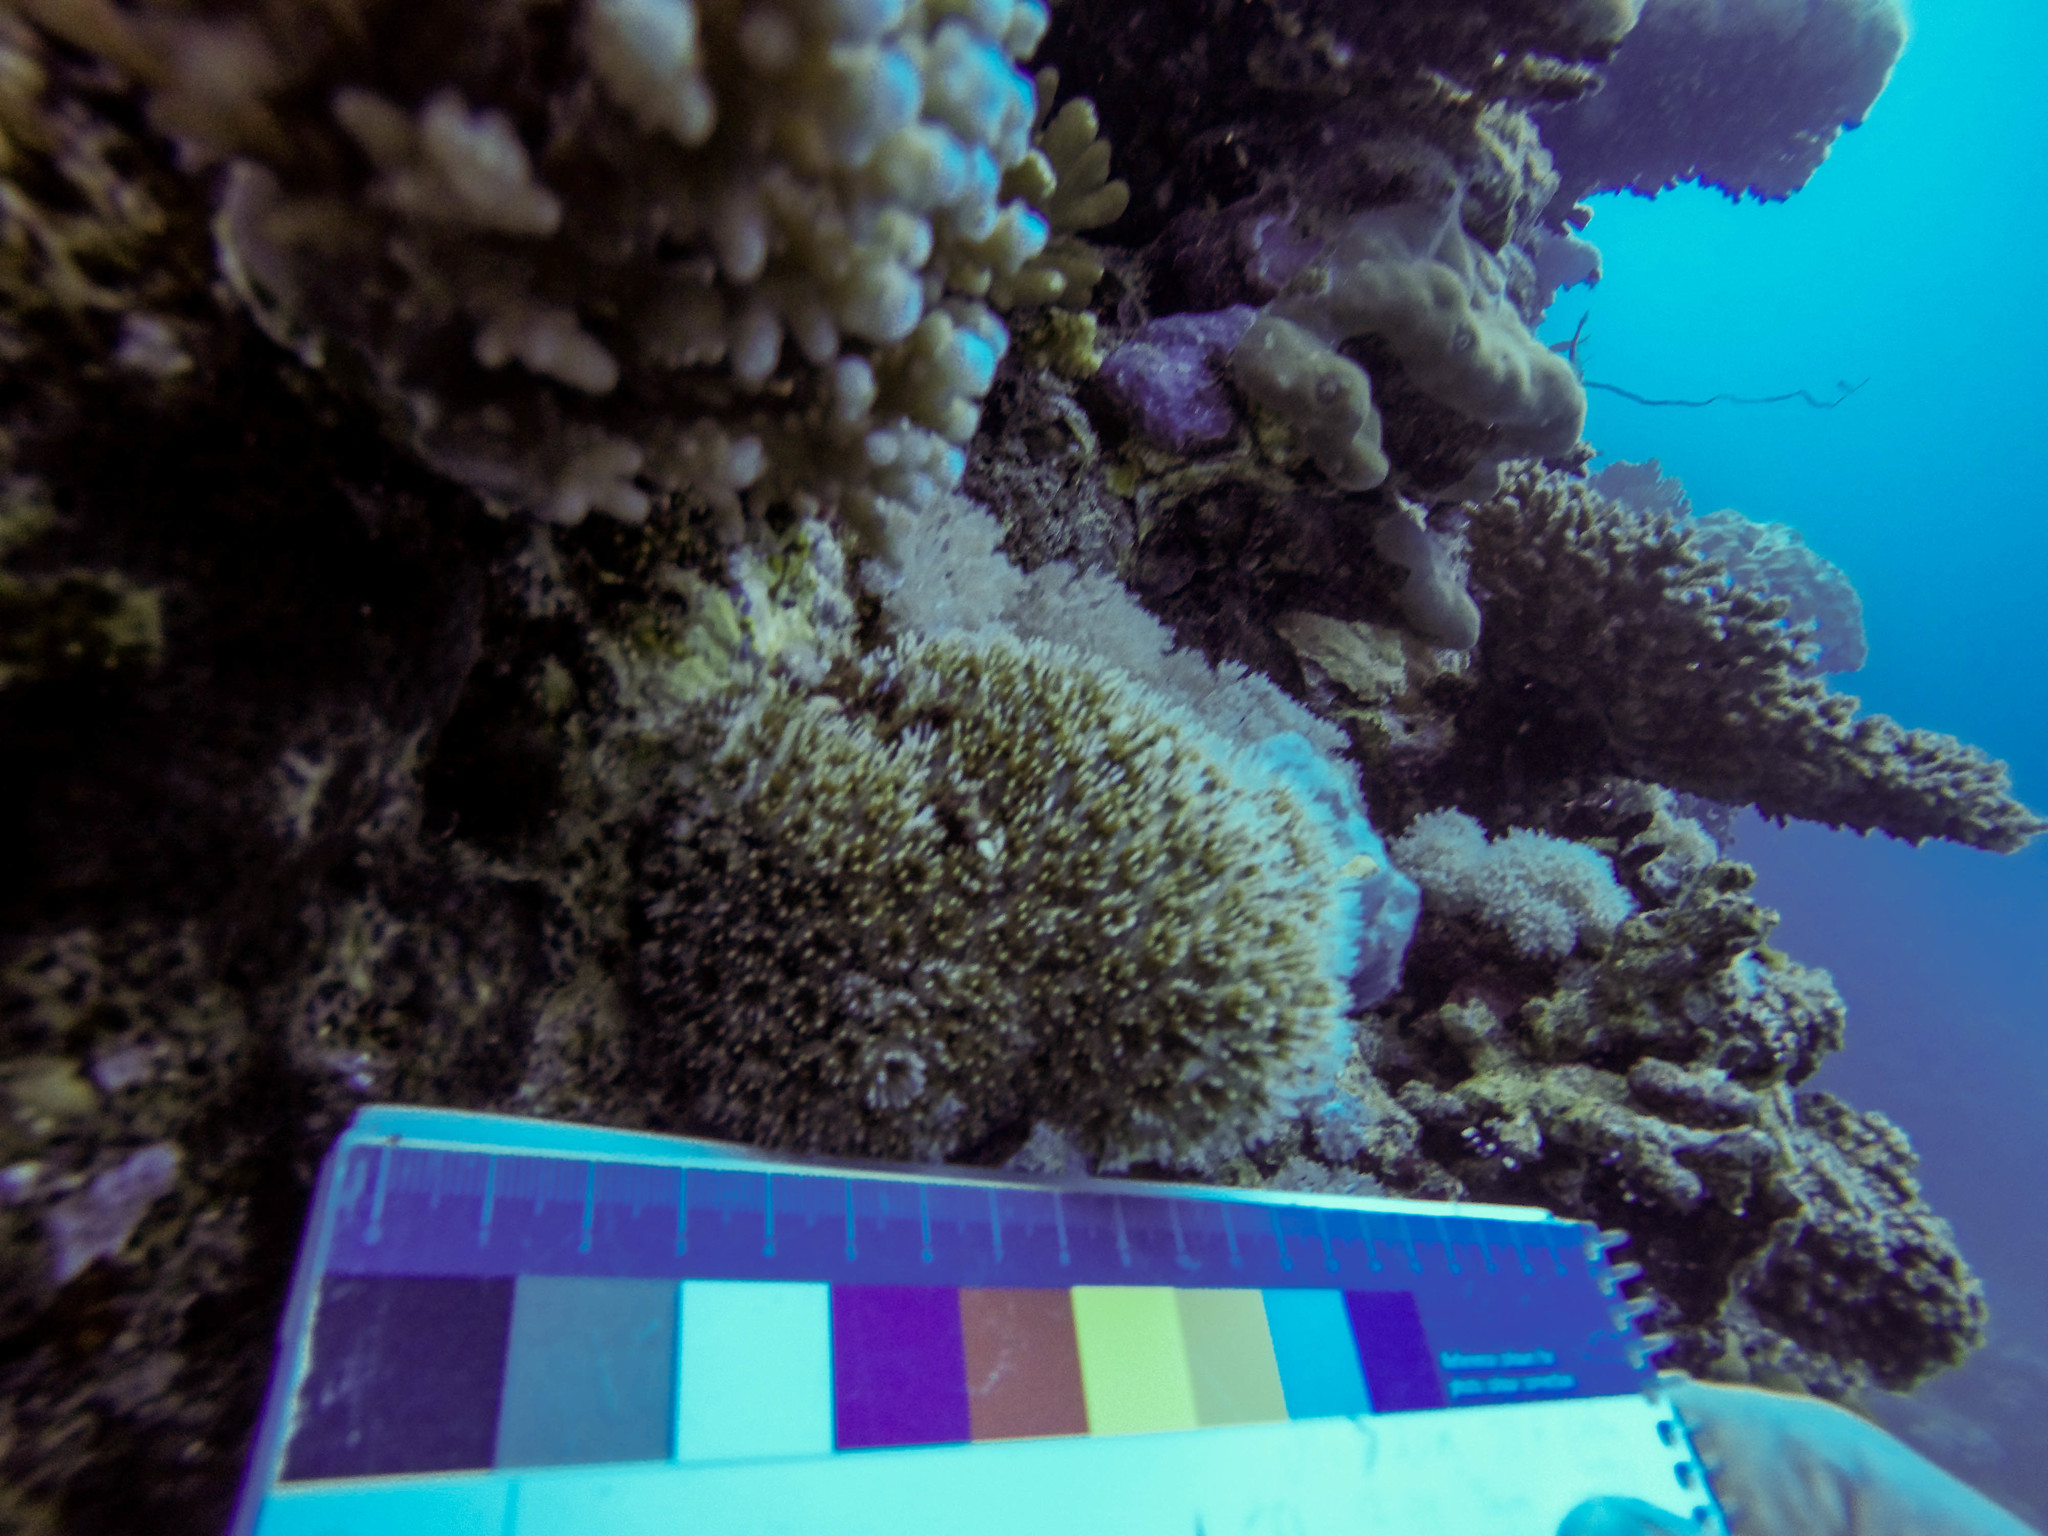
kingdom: Animalia
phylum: Cnidaria
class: Anthozoa
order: Scleractinia
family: Euphylliidae
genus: Galaxea
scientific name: Galaxea fascicularis
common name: Octopus coral
